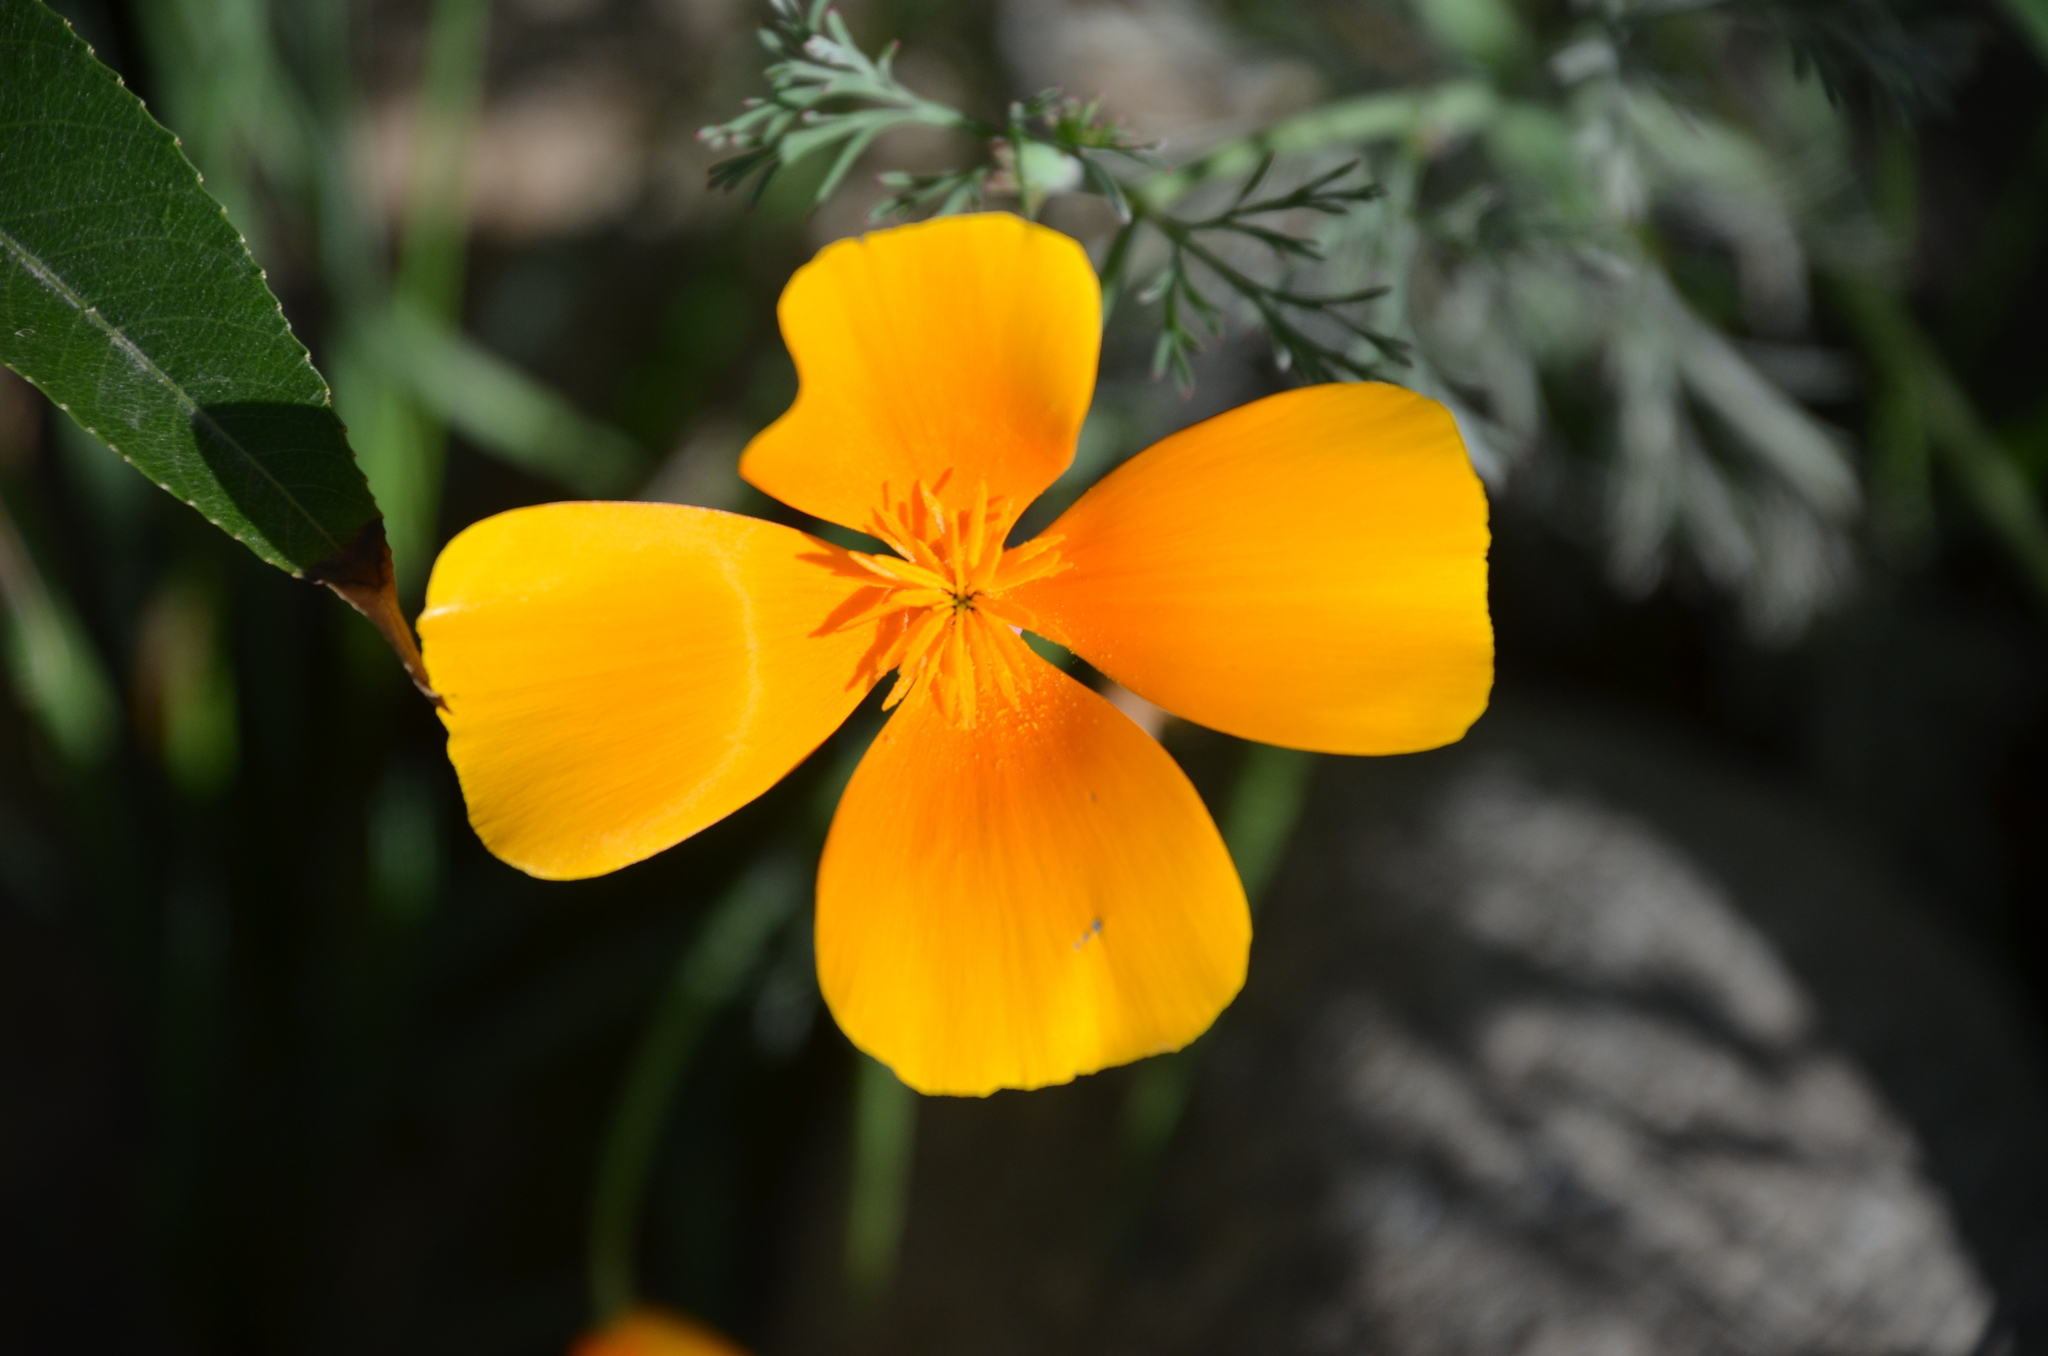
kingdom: Plantae
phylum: Tracheophyta
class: Magnoliopsida
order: Ranunculales
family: Papaveraceae
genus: Eschscholzia
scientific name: Eschscholzia californica
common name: California poppy
